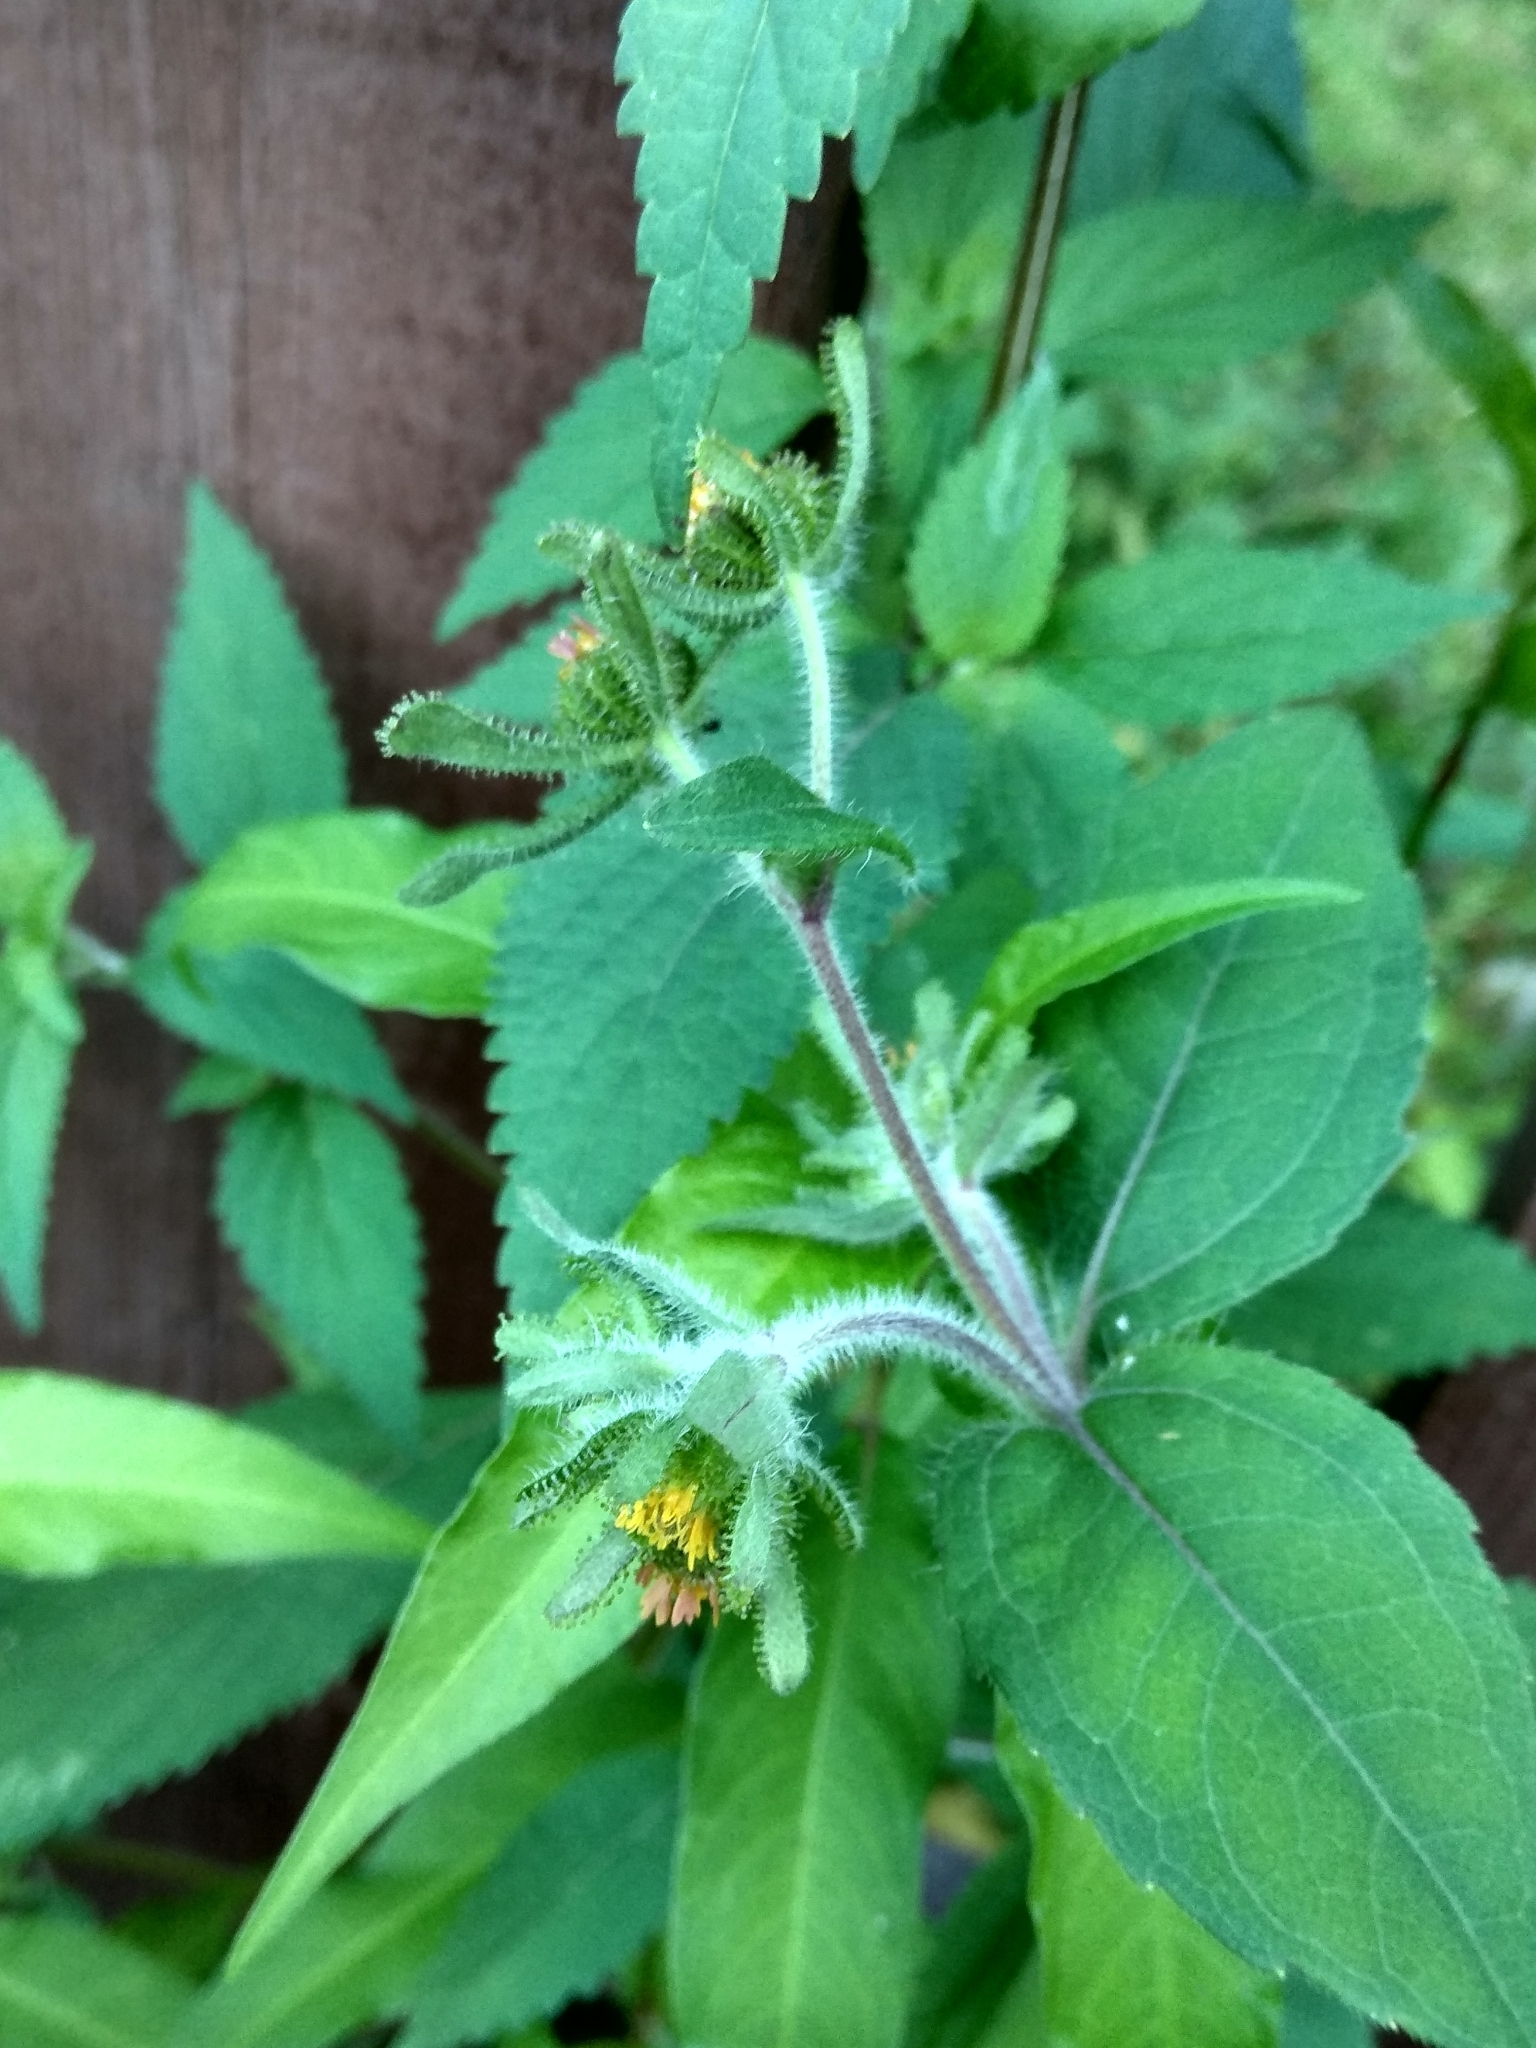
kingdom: Plantae
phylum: Tracheophyta
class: Magnoliopsida
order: Asterales
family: Asteraceae
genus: Sigesbeckia
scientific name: Sigesbeckia orientalis
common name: Eastern st paul's-wort
